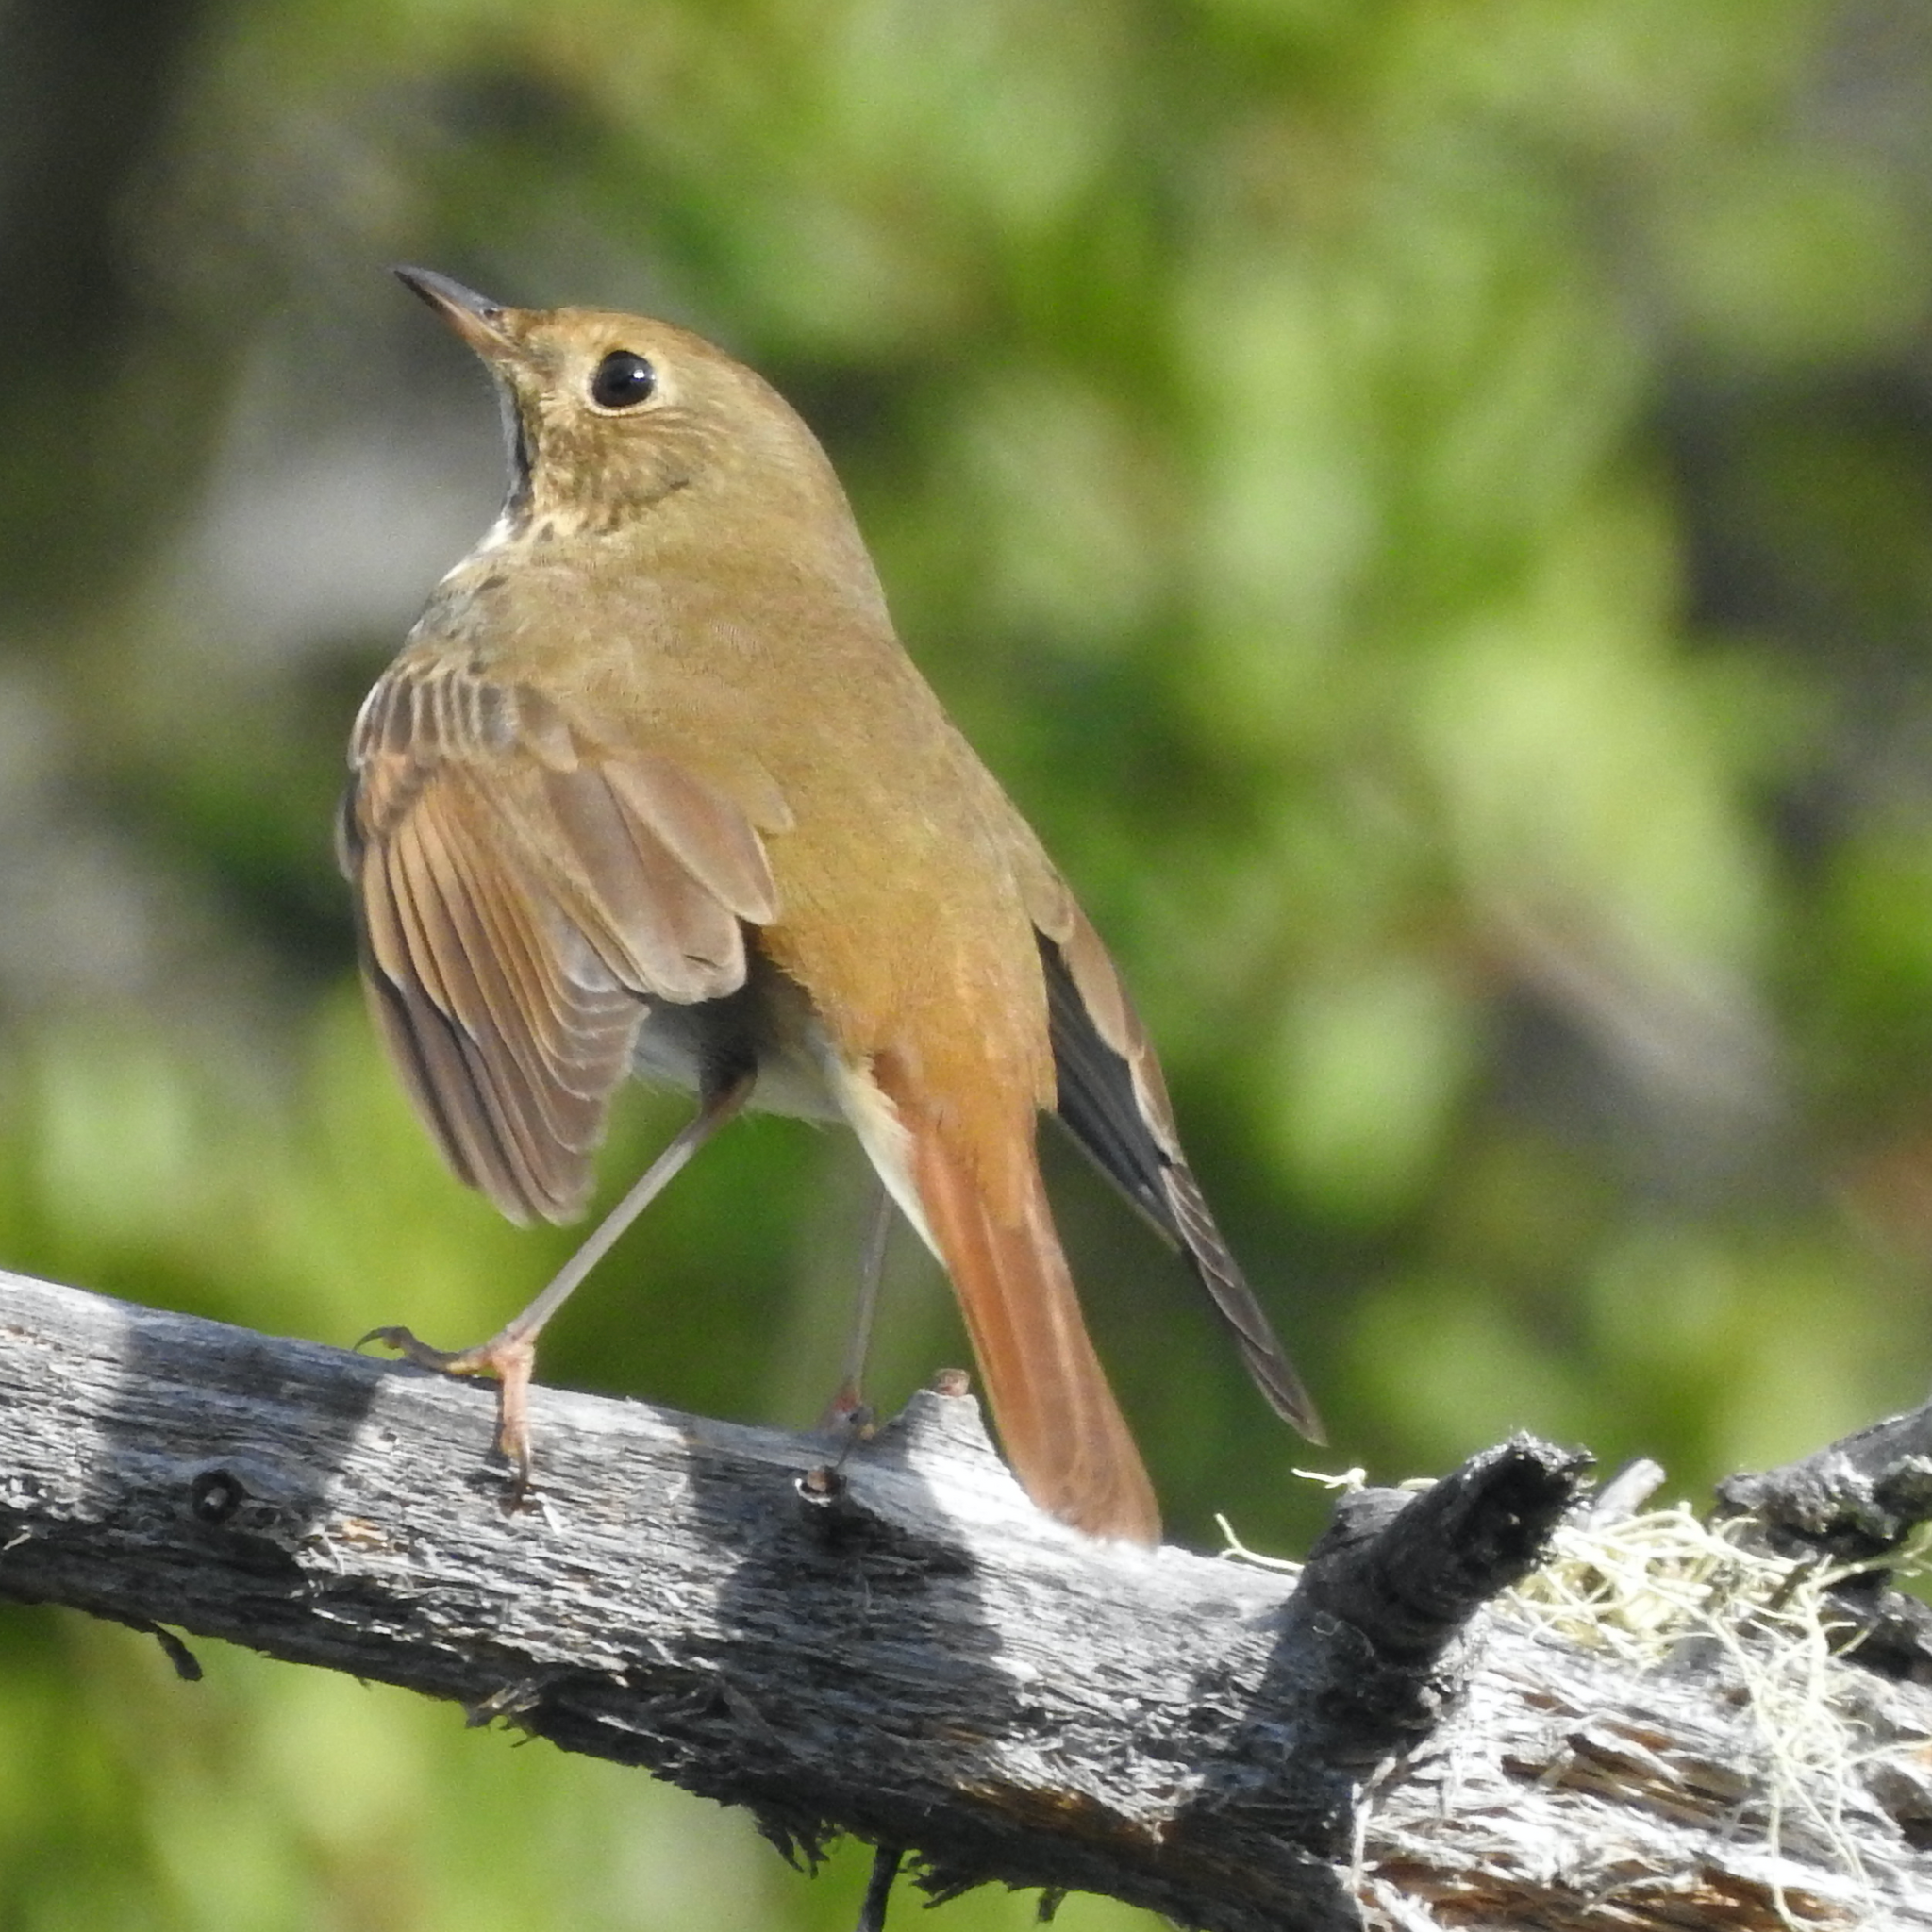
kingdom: Animalia
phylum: Chordata
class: Aves
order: Passeriformes
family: Turdidae
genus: Catharus
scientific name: Catharus guttatus
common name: Hermit thrush
